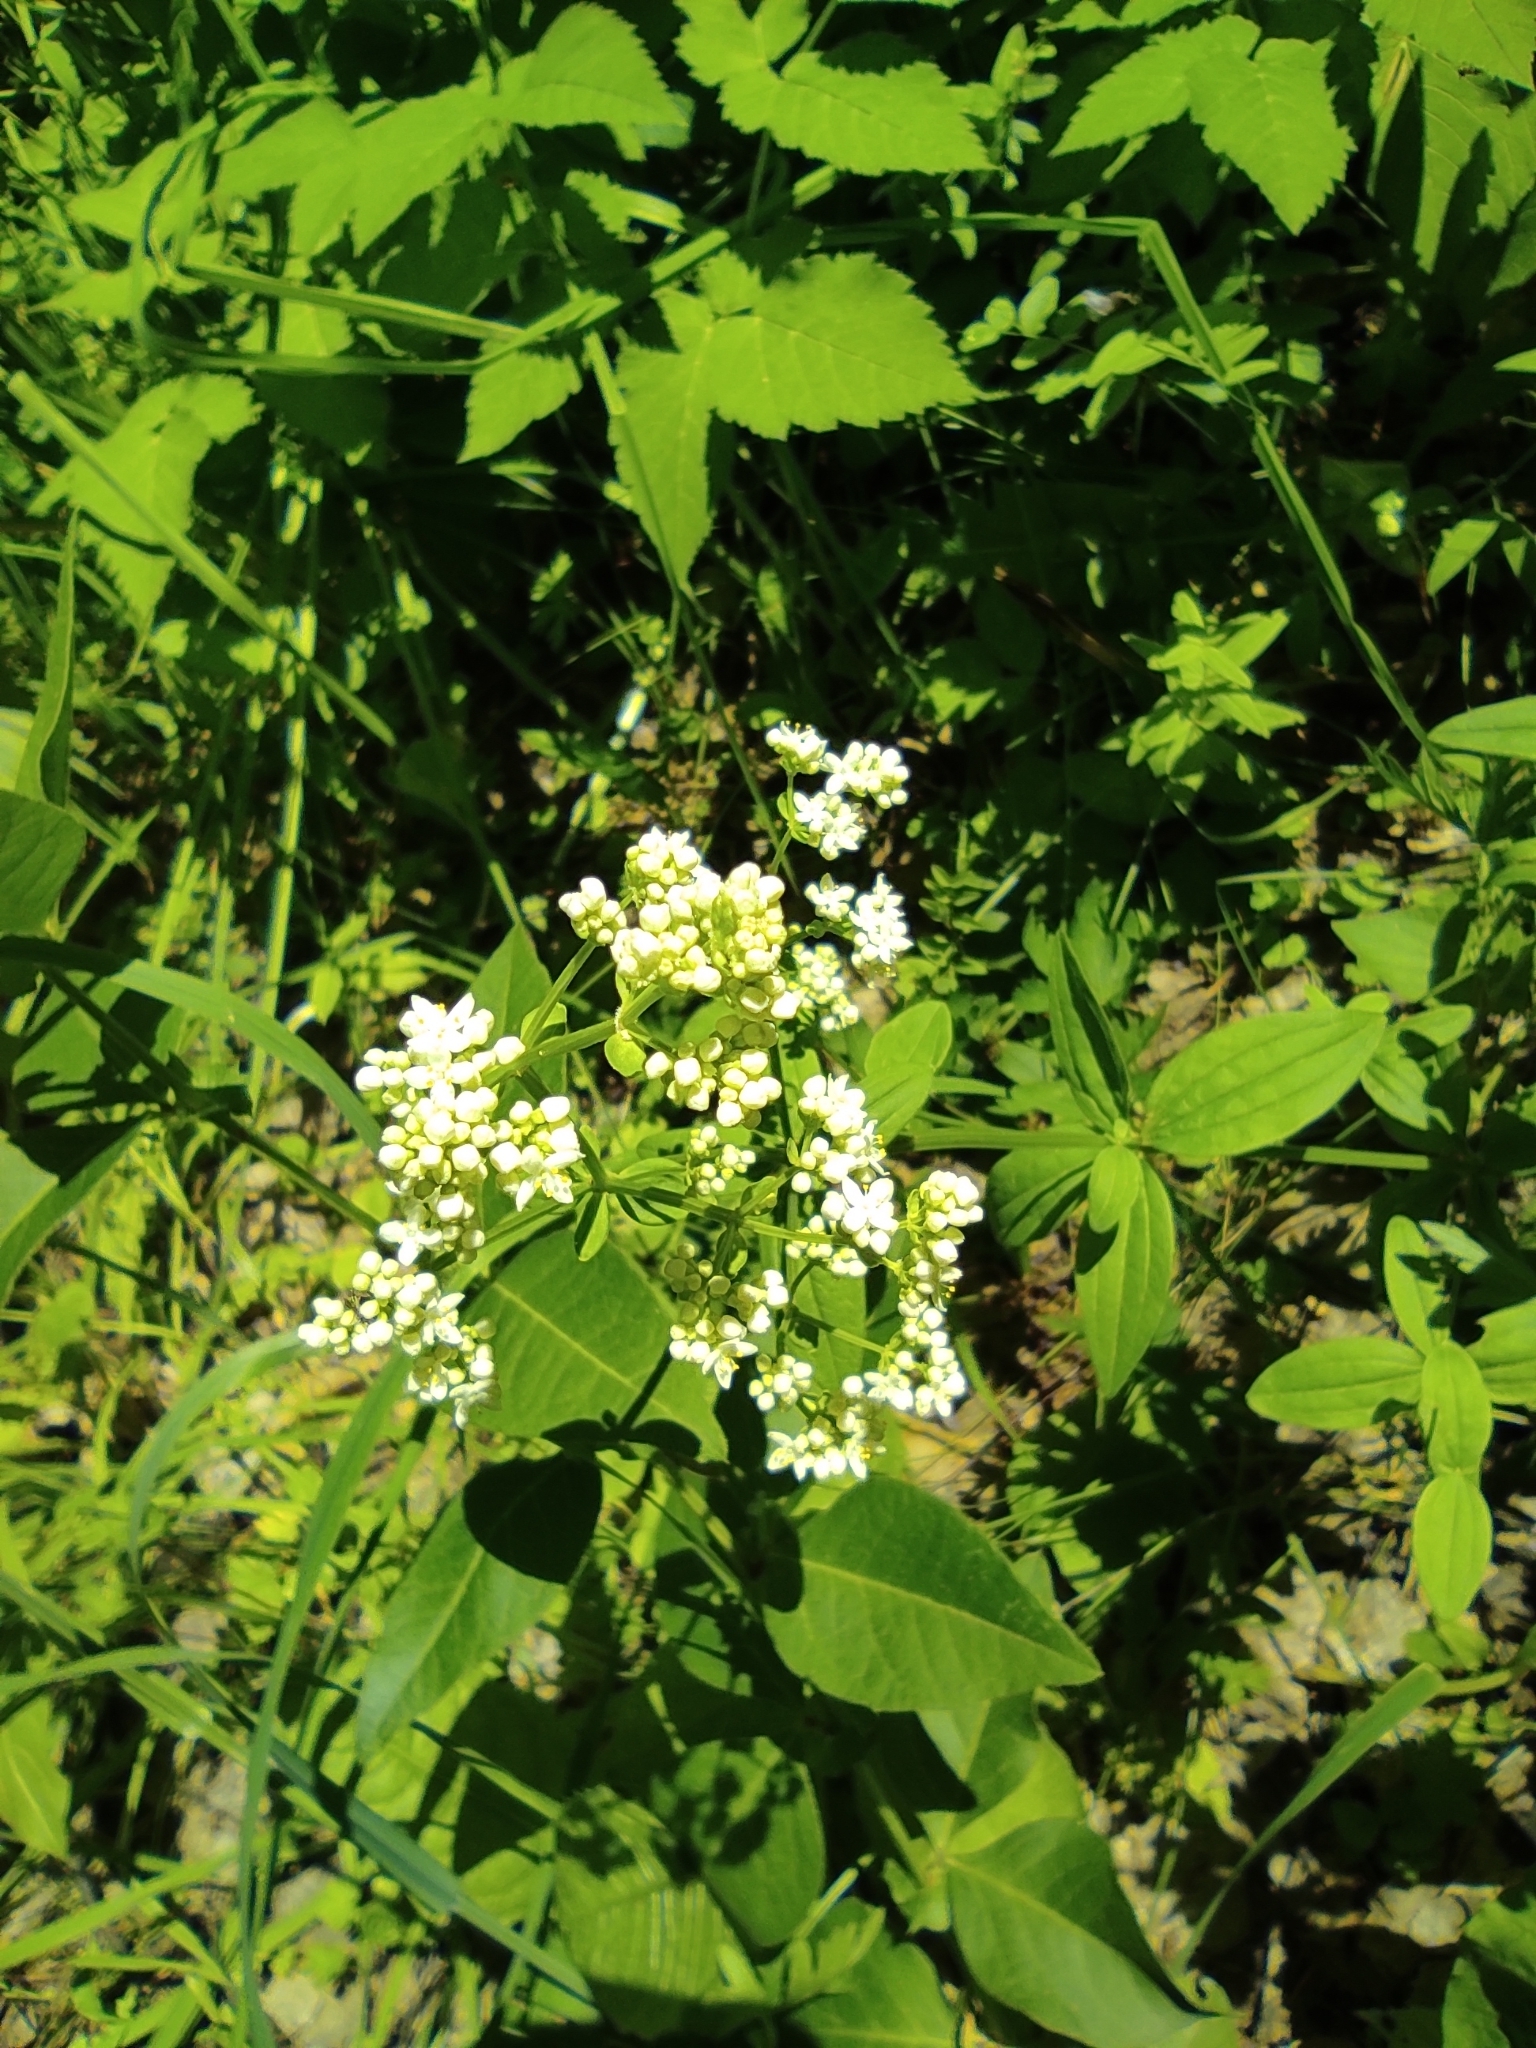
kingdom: Plantae
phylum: Tracheophyta
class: Magnoliopsida
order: Gentianales
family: Rubiaceae
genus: Galium
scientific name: Galium rubioides
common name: European bedstraw
